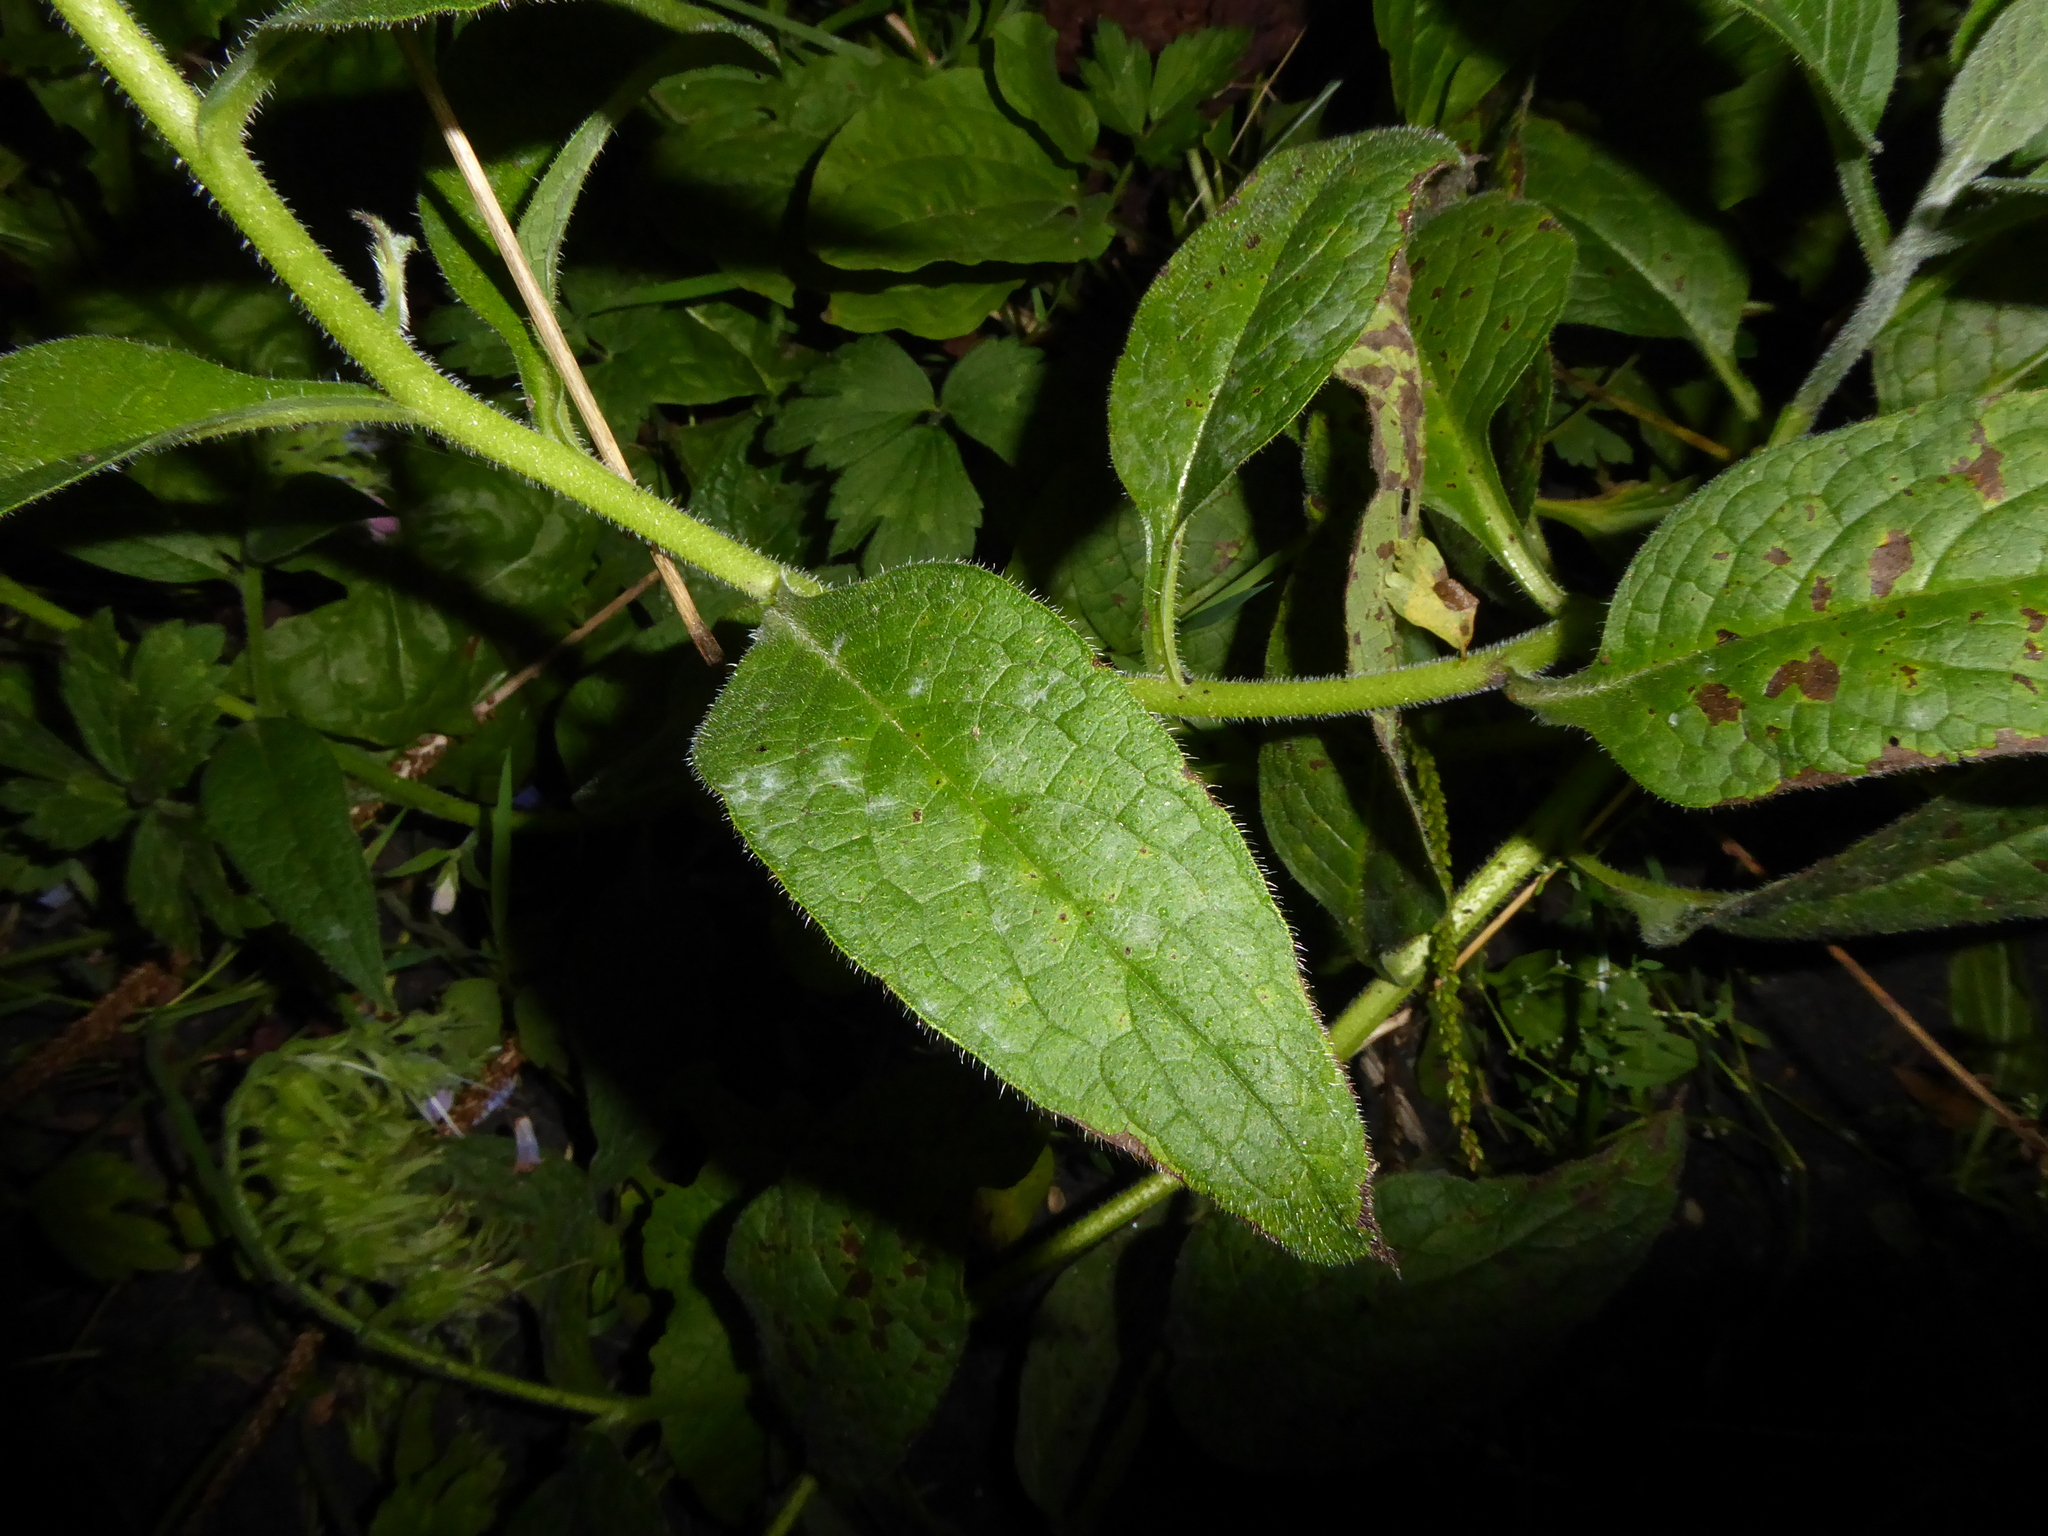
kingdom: Fungi
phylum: Ascomycota
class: Leotiomycetes
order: Helotiales
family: Erysiphaceae
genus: Golovinomyces
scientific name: Golovinomyces asperifoliorum
